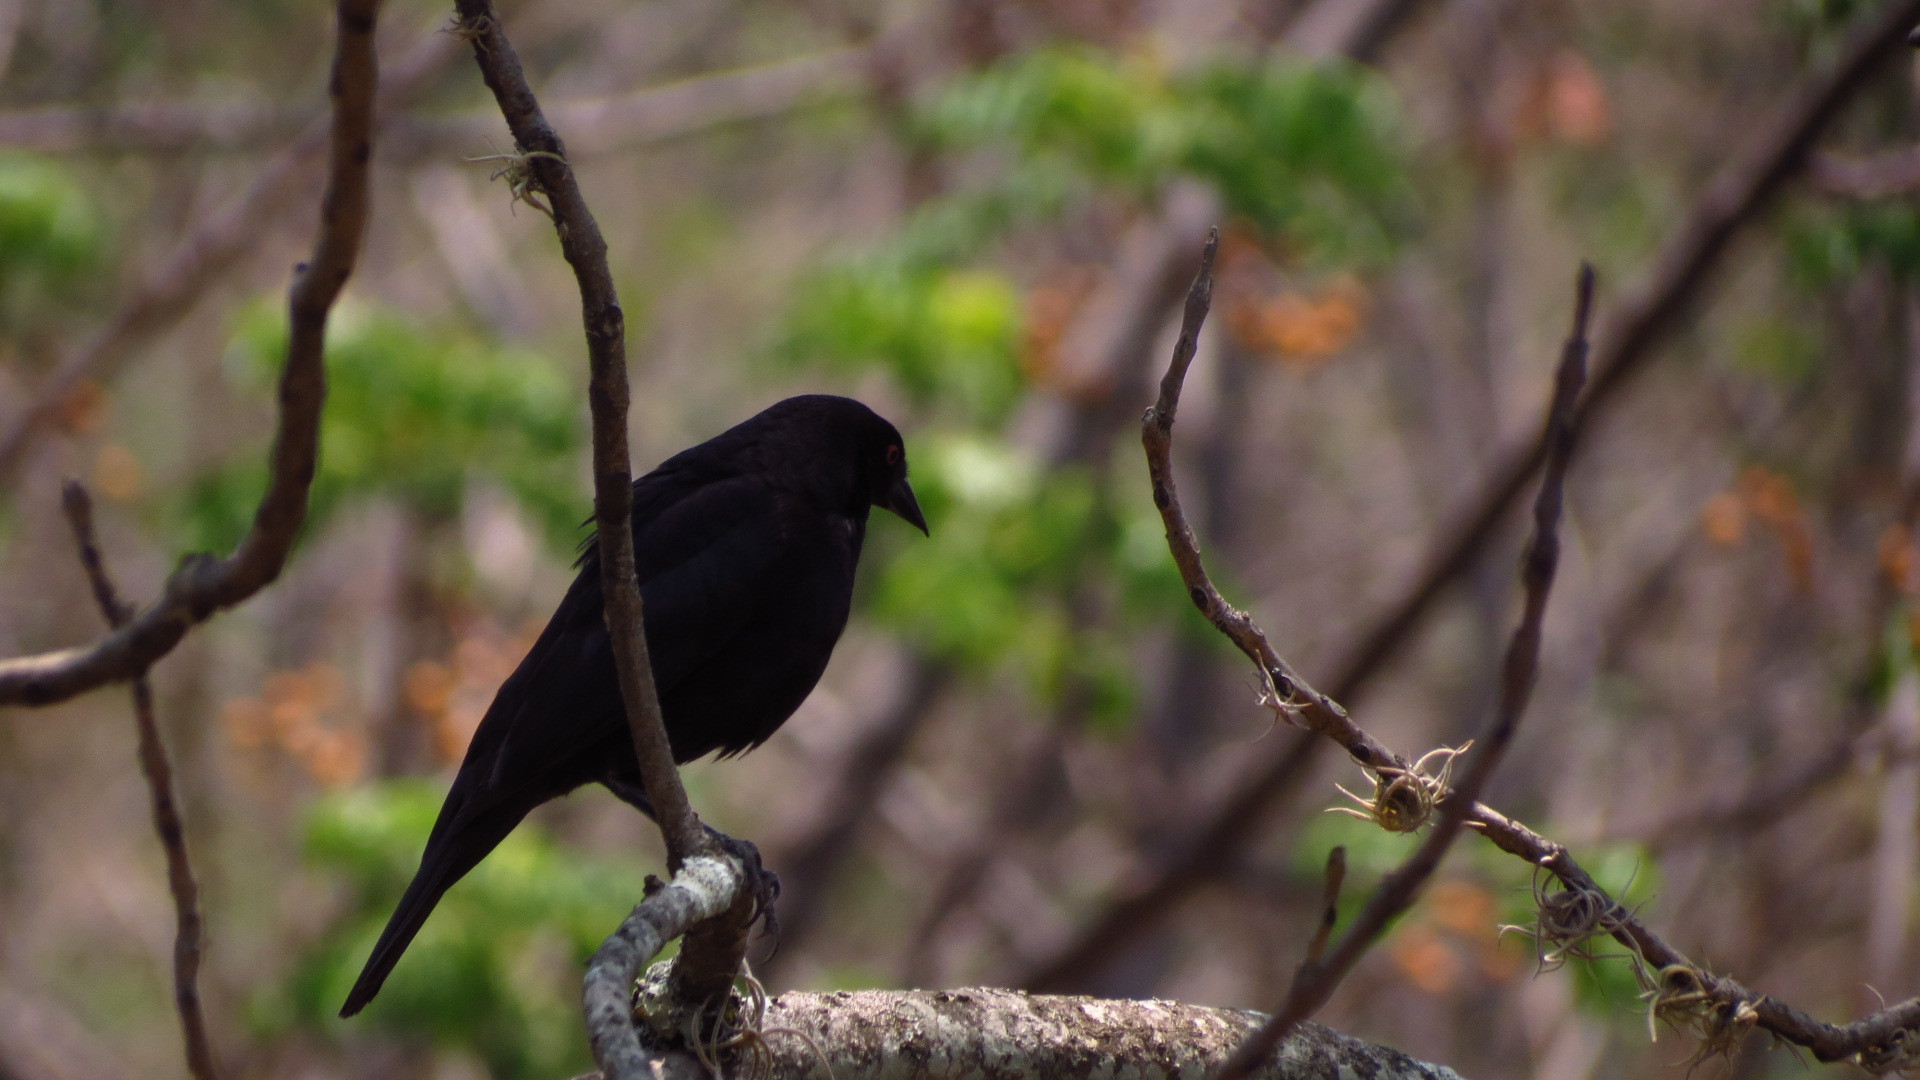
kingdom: Animalia
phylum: Chordata
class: Aves
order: Passeriformes
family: Icteridae
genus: Molothrus
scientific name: Molothrus aeneus
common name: Bronzed cowbird
